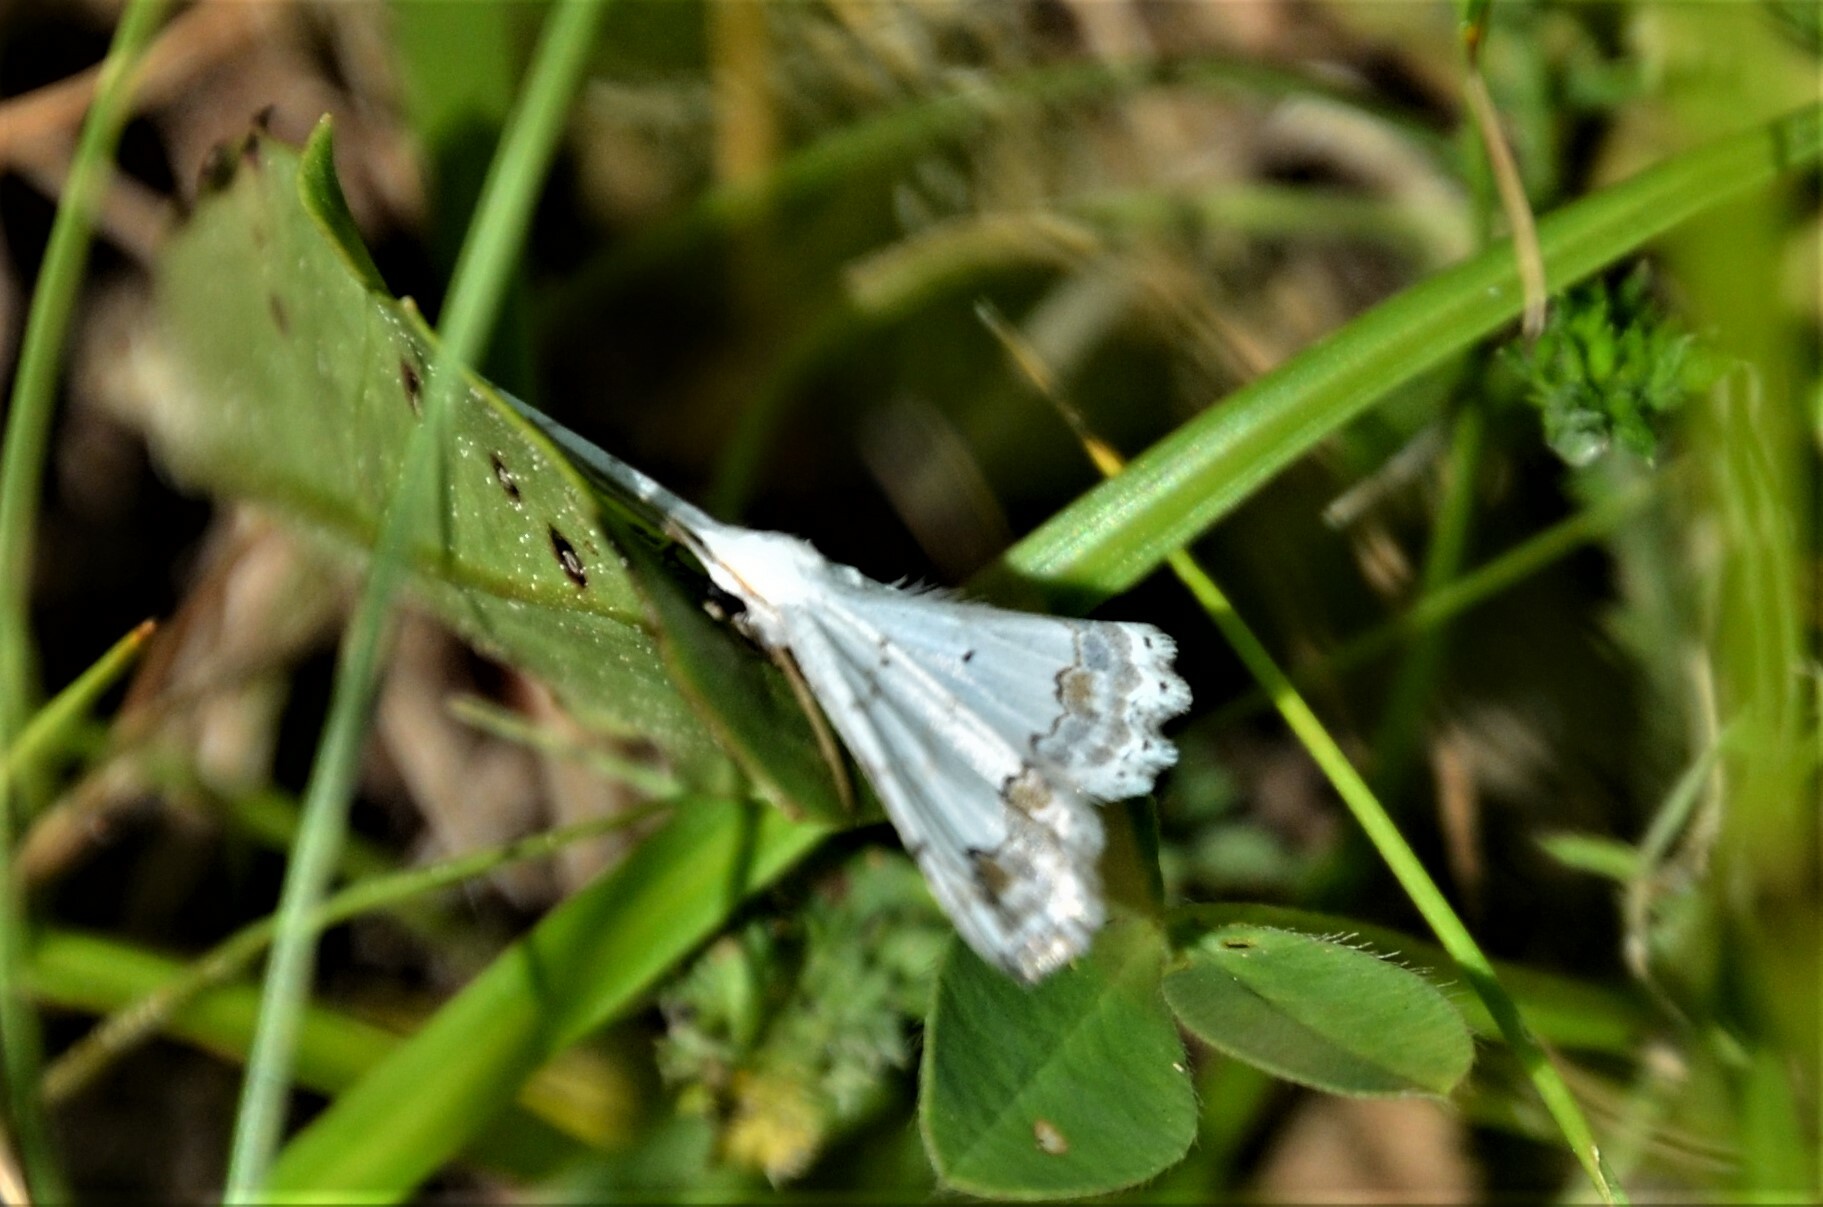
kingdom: Animalia
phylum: Arthropoda
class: Insecta
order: Lepidoptera
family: Geometridae
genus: Scopula
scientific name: Scopula ornata
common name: Lace border
